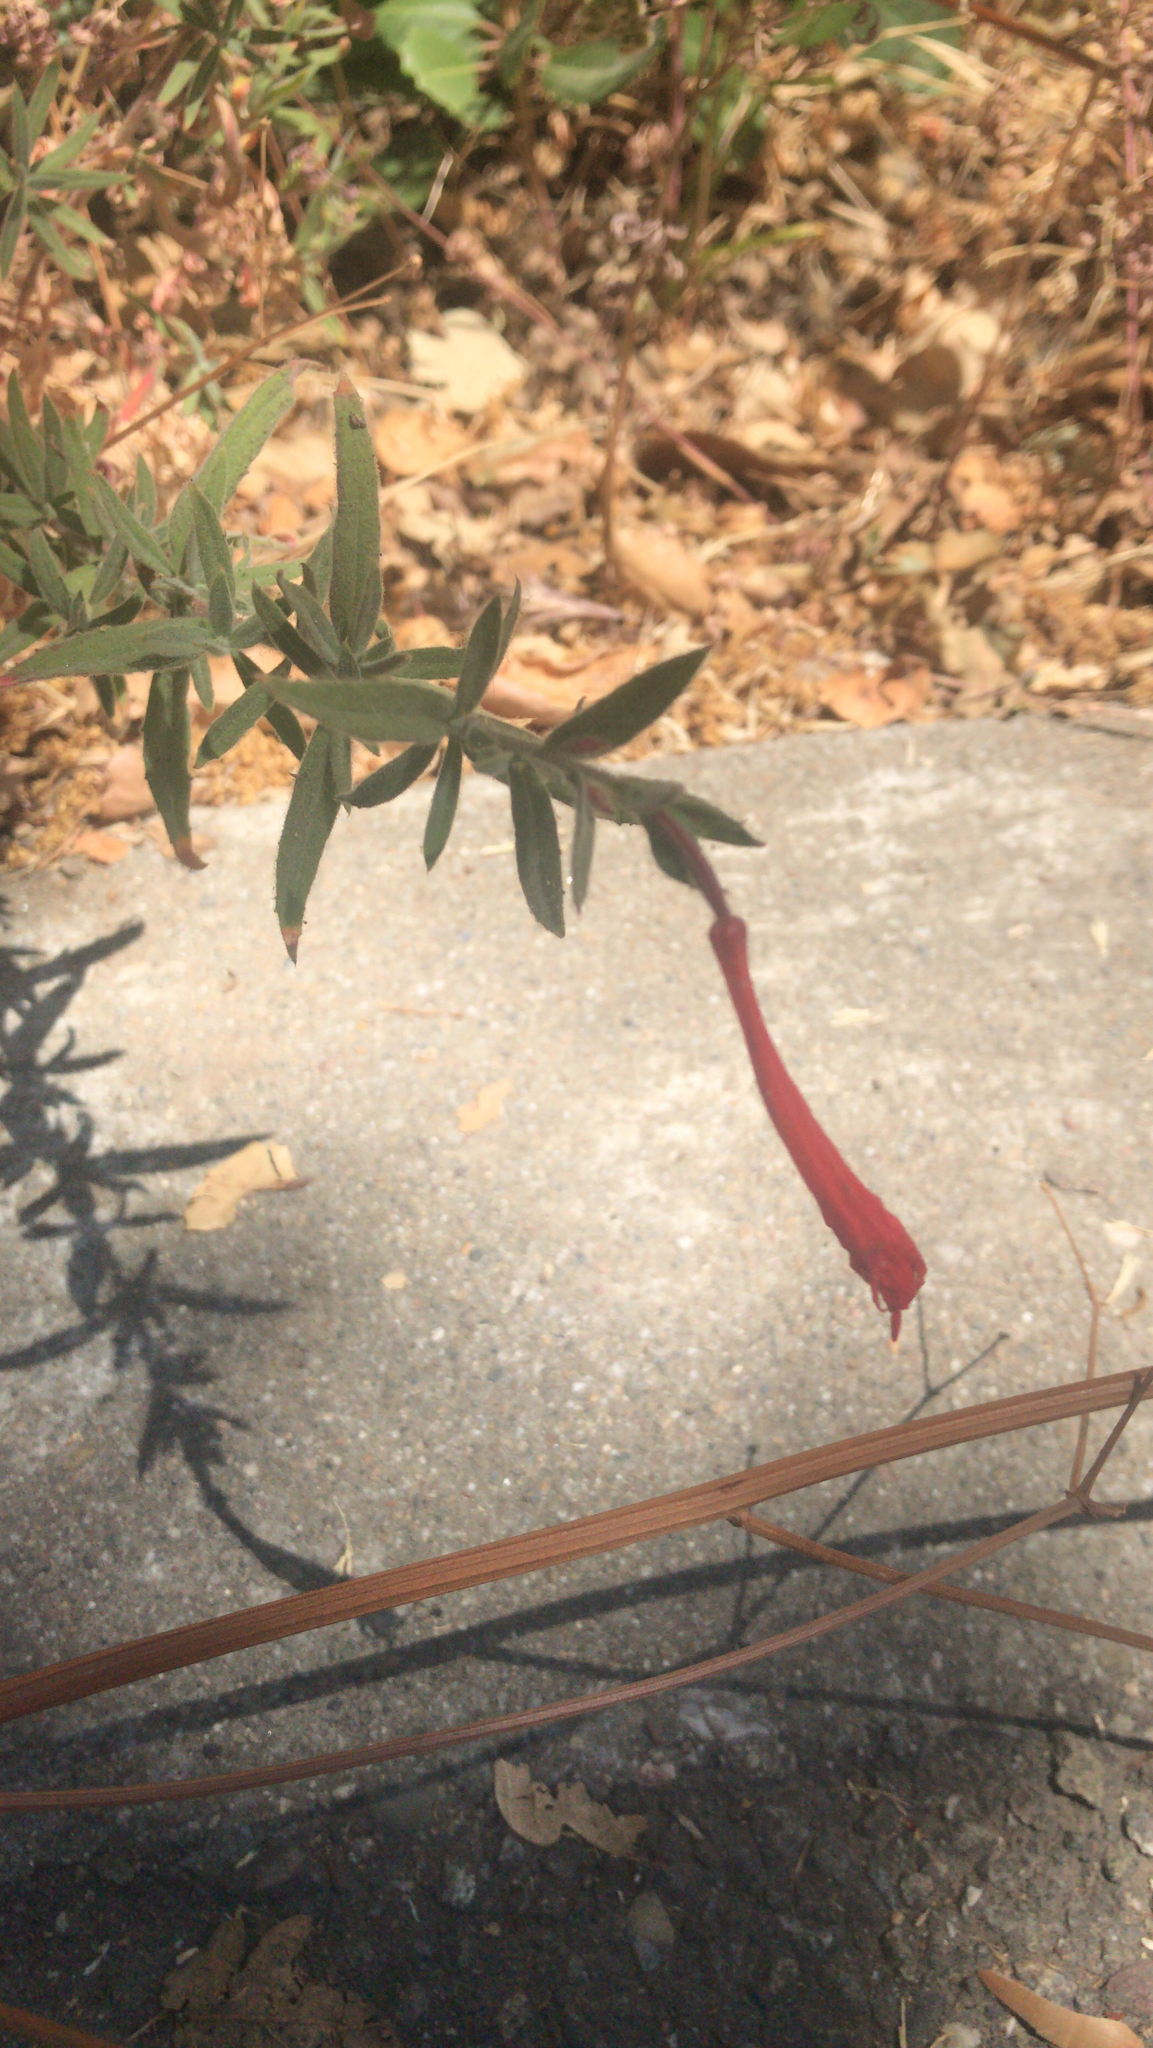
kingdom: Plantae
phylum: Tracheophyta
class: Magnoliopsida
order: Myrtales
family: Onagraceae
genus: Epilobium
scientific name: Epilobium canum
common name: California-fuchsia
